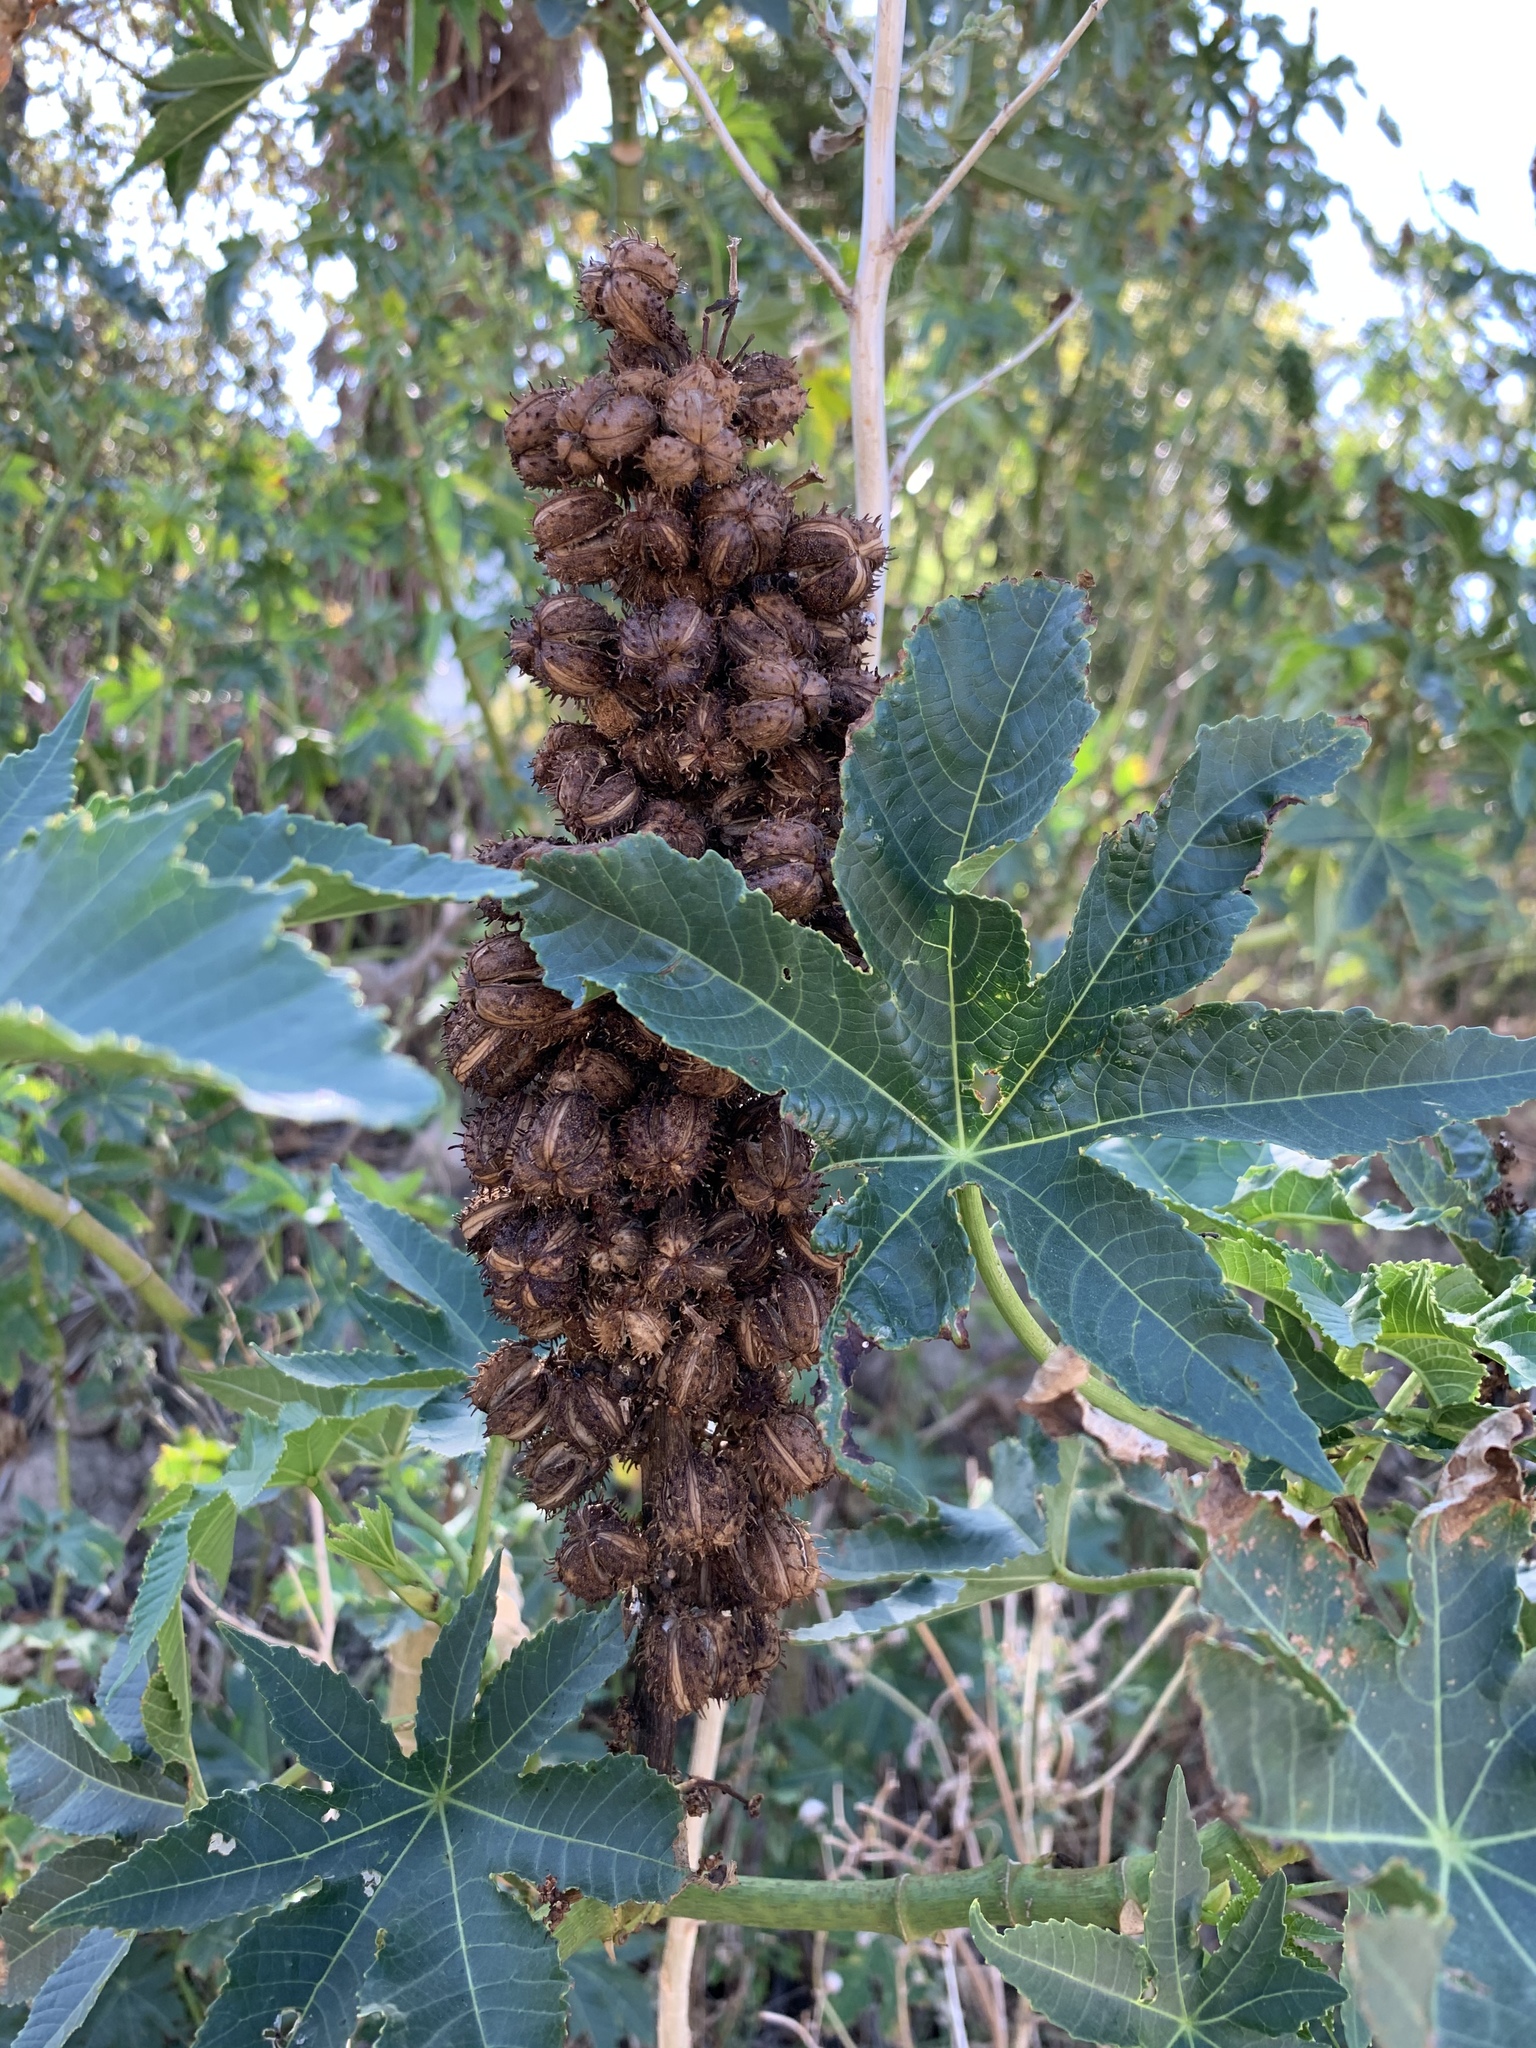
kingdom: Plantae
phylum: Tracheophyta
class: Magnoliopsida
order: Malpighiales
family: Euphorbiaceae
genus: Ricinus
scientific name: Ricinus communis
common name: Castor-oil-plant
